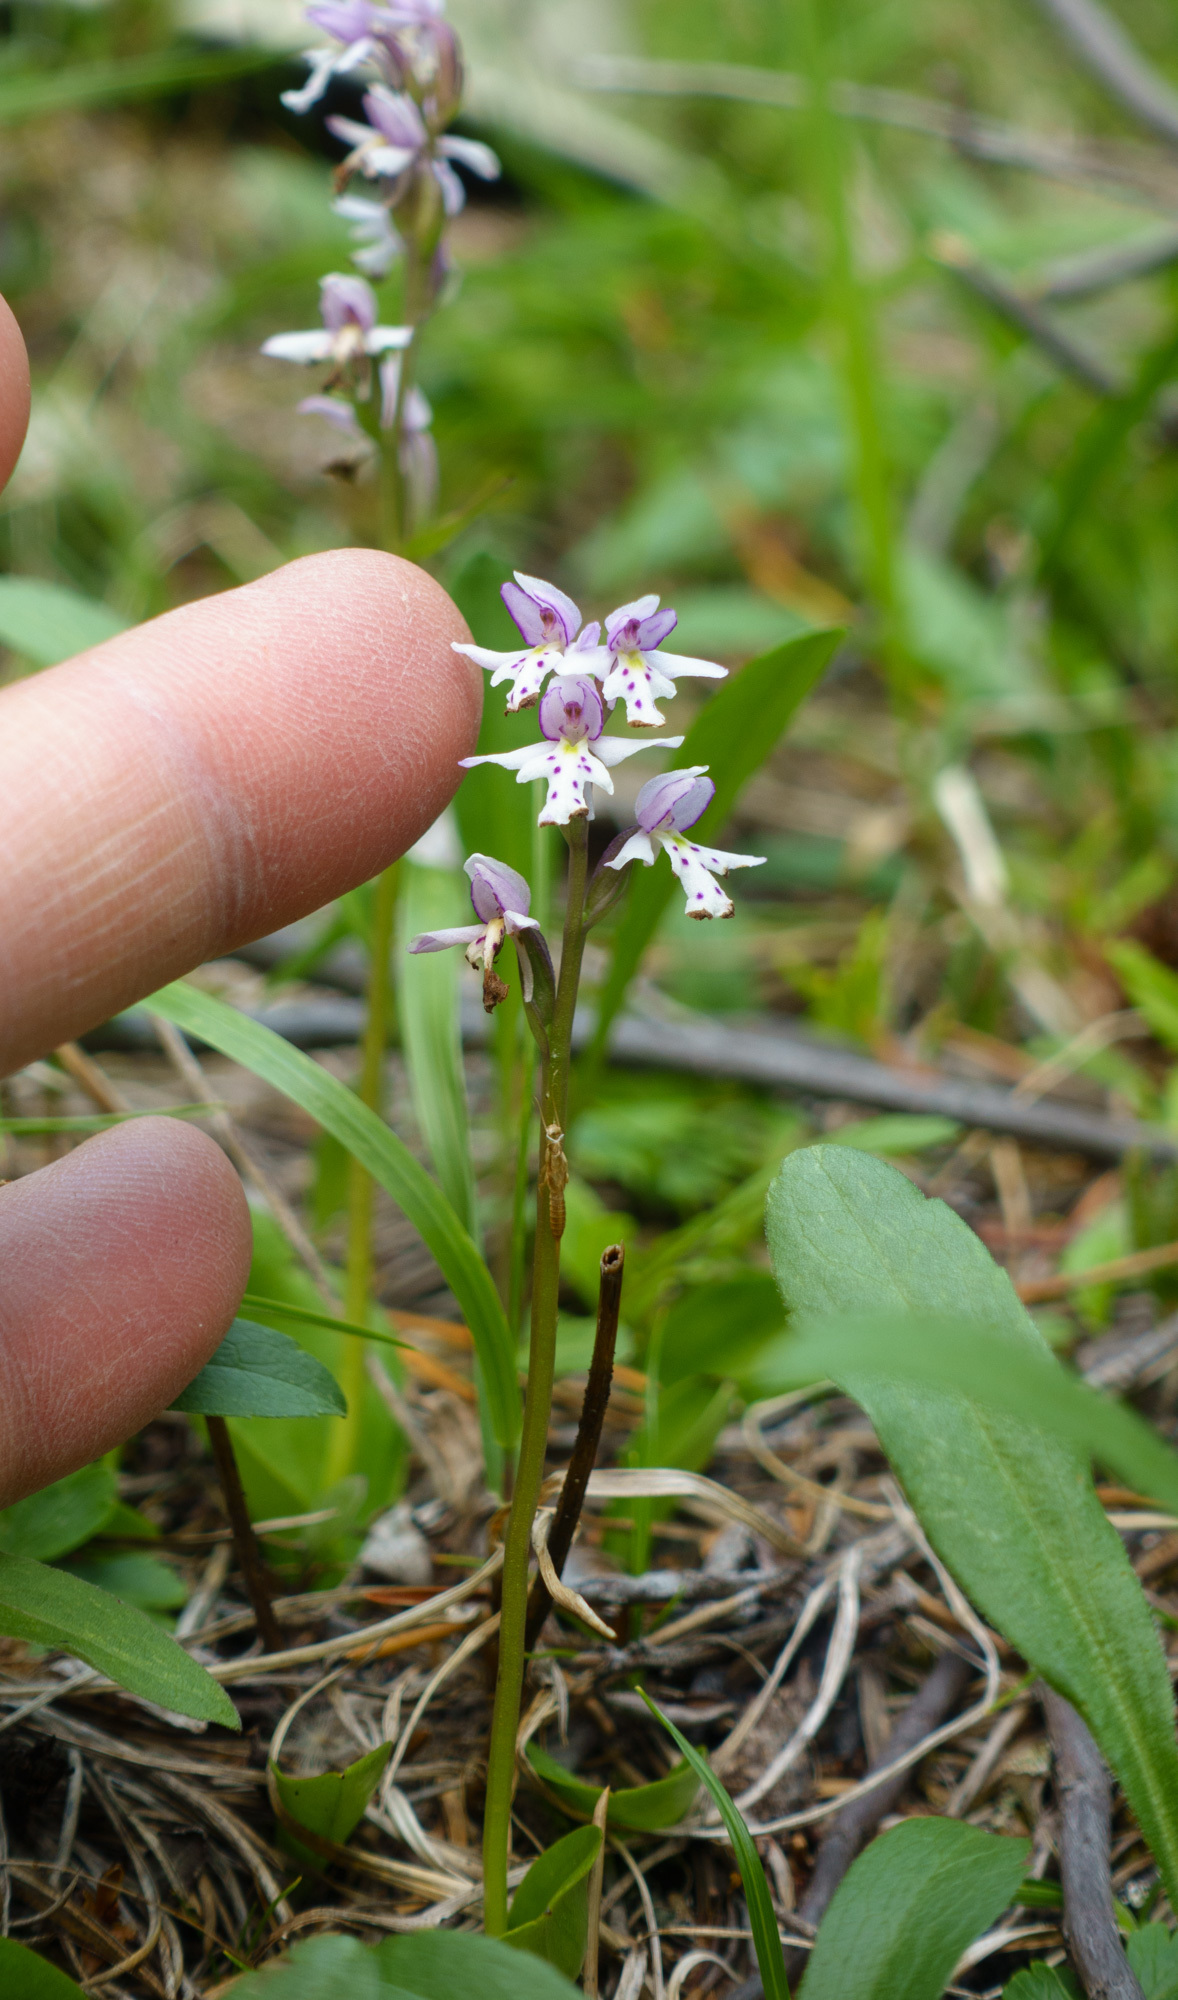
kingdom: Plantae
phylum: Tracheophyta
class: Liliopsida
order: Asparagales
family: Orchidaceae
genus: Galearis
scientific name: Galearis rotundifolia
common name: One-leaved orchis
